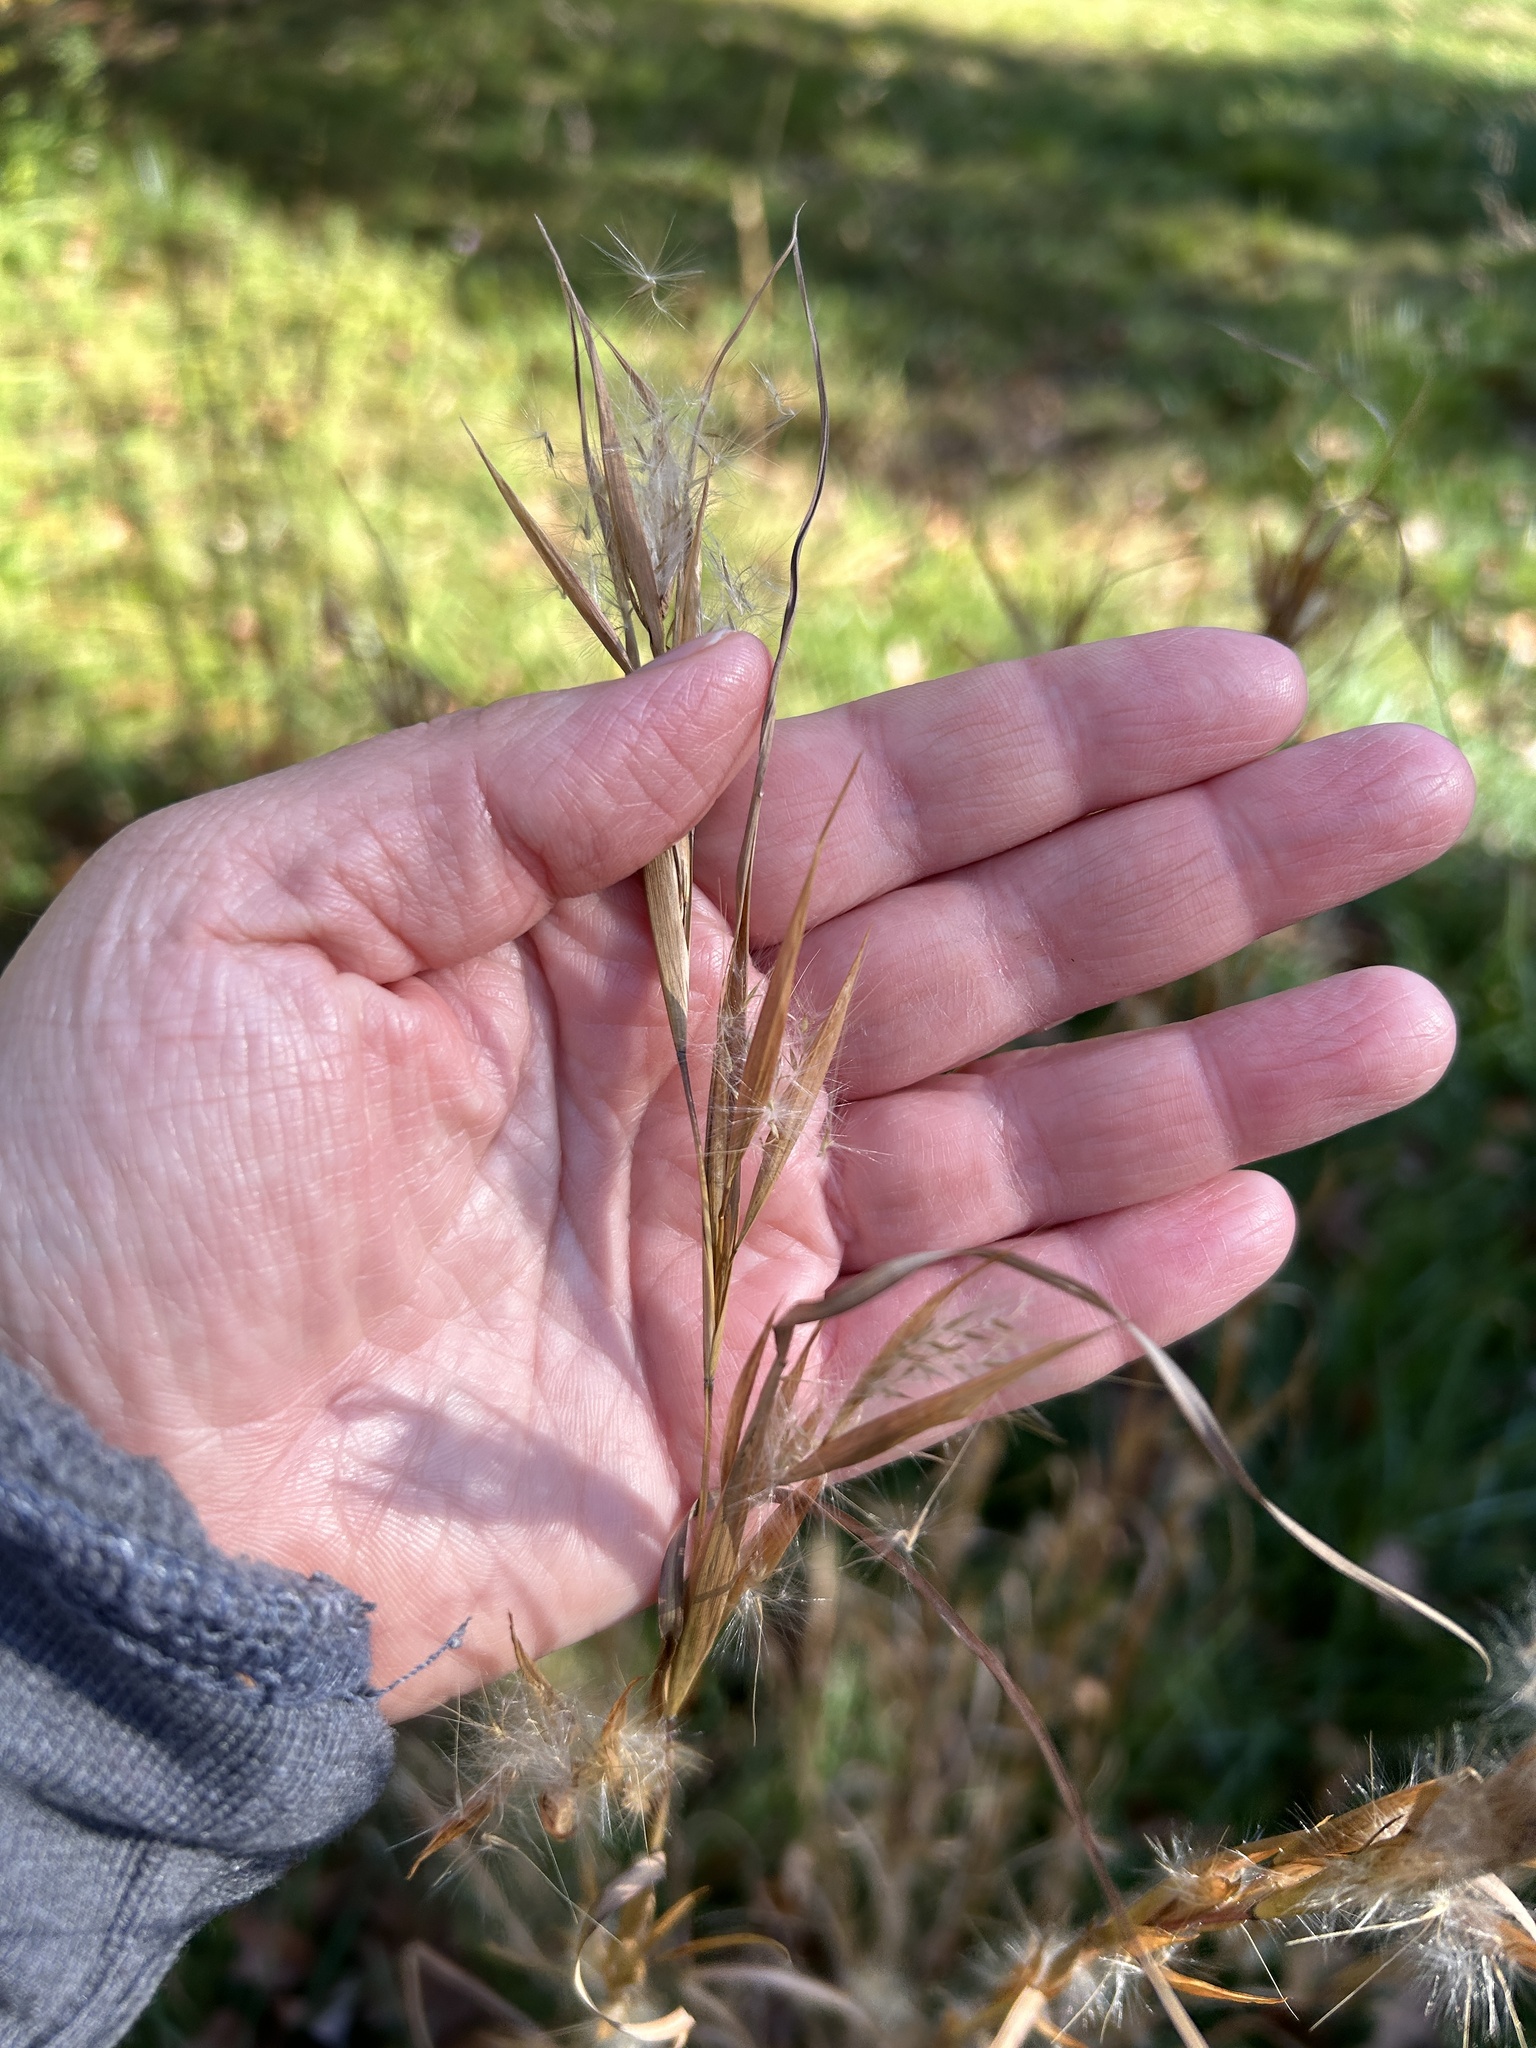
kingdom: Plantae
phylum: Tracheophyta
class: Liliopsida
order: Poales
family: Poaceae
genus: Andropogon
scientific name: Andropogon virginicus
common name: Broomsedge bluestem
